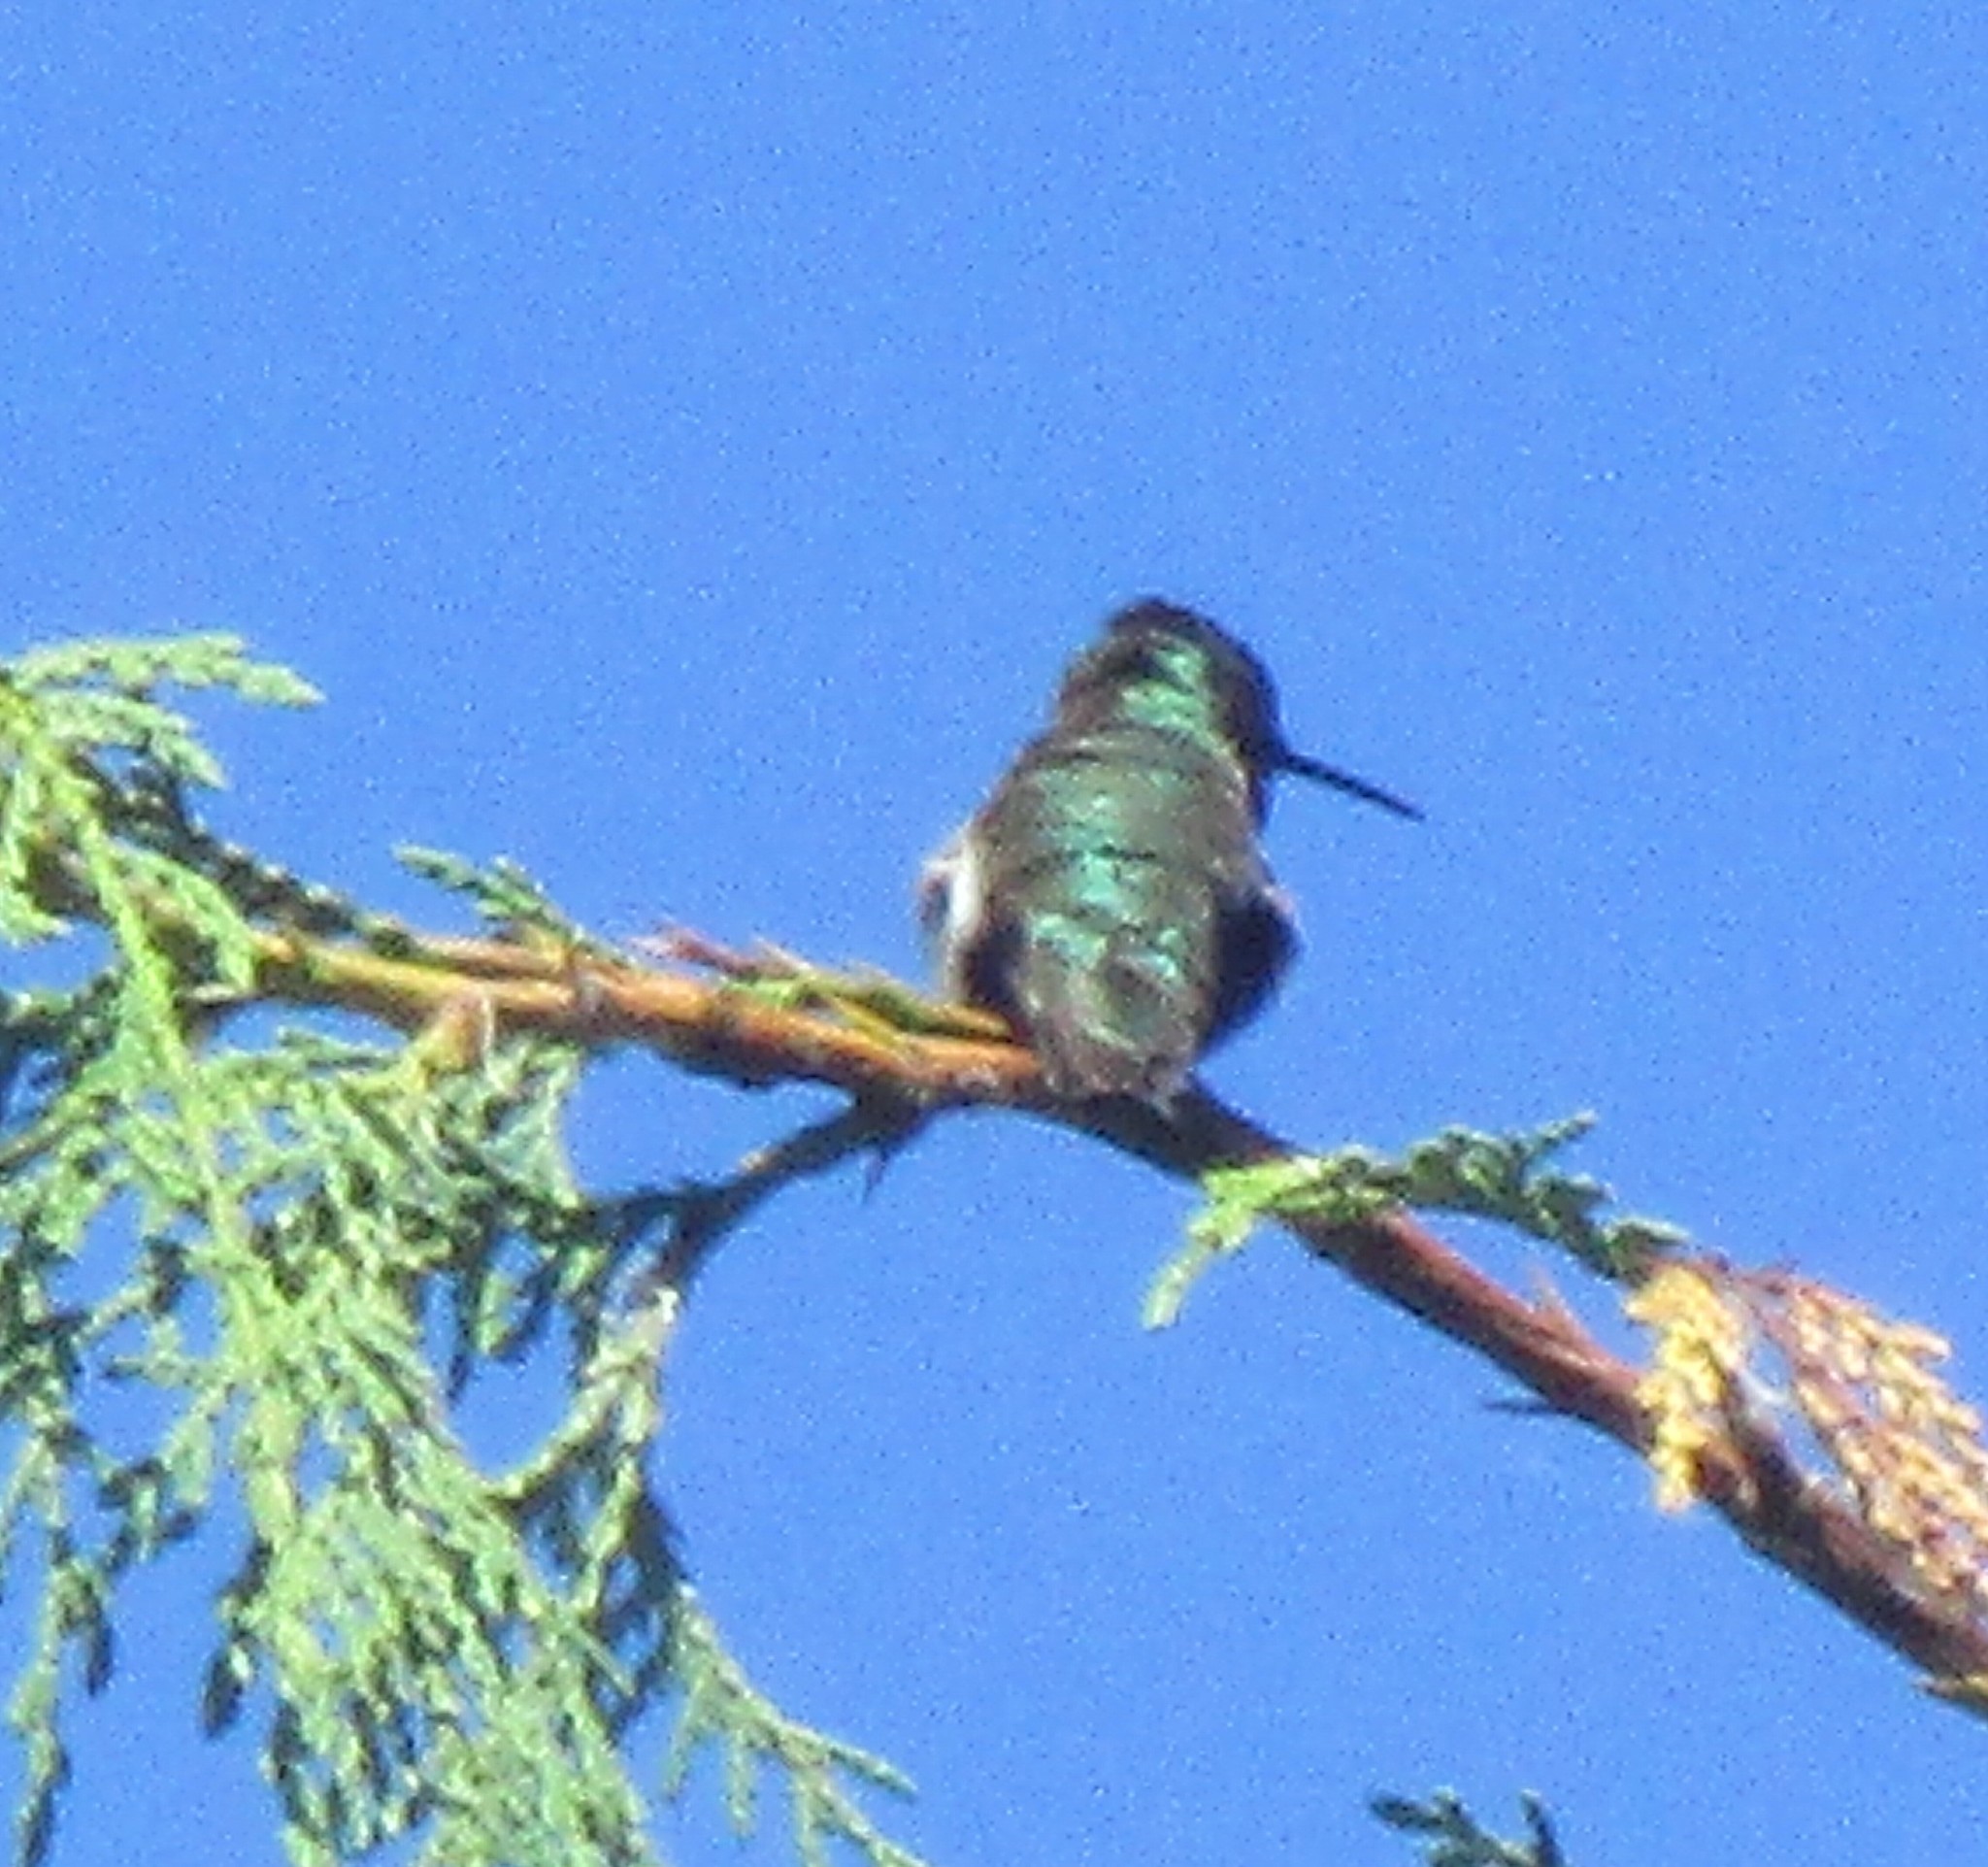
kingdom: Animalia
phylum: Chordata
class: Aves
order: Apodiformes
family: Trochilidae
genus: Calypte
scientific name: Calypte anna
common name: Anna's hummingbird
